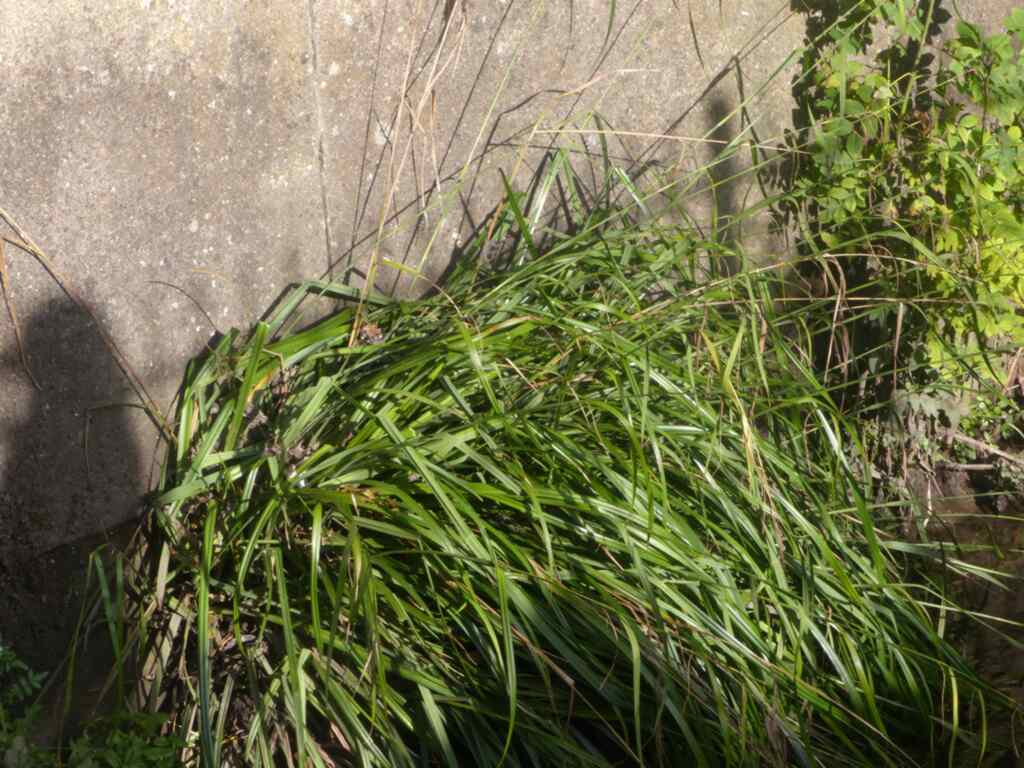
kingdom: Plantae
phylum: Tracheophyta
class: Liliopsida
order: Poales
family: Cyperaceae
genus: Carex
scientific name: Carex pendula
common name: Pendulous sedge
